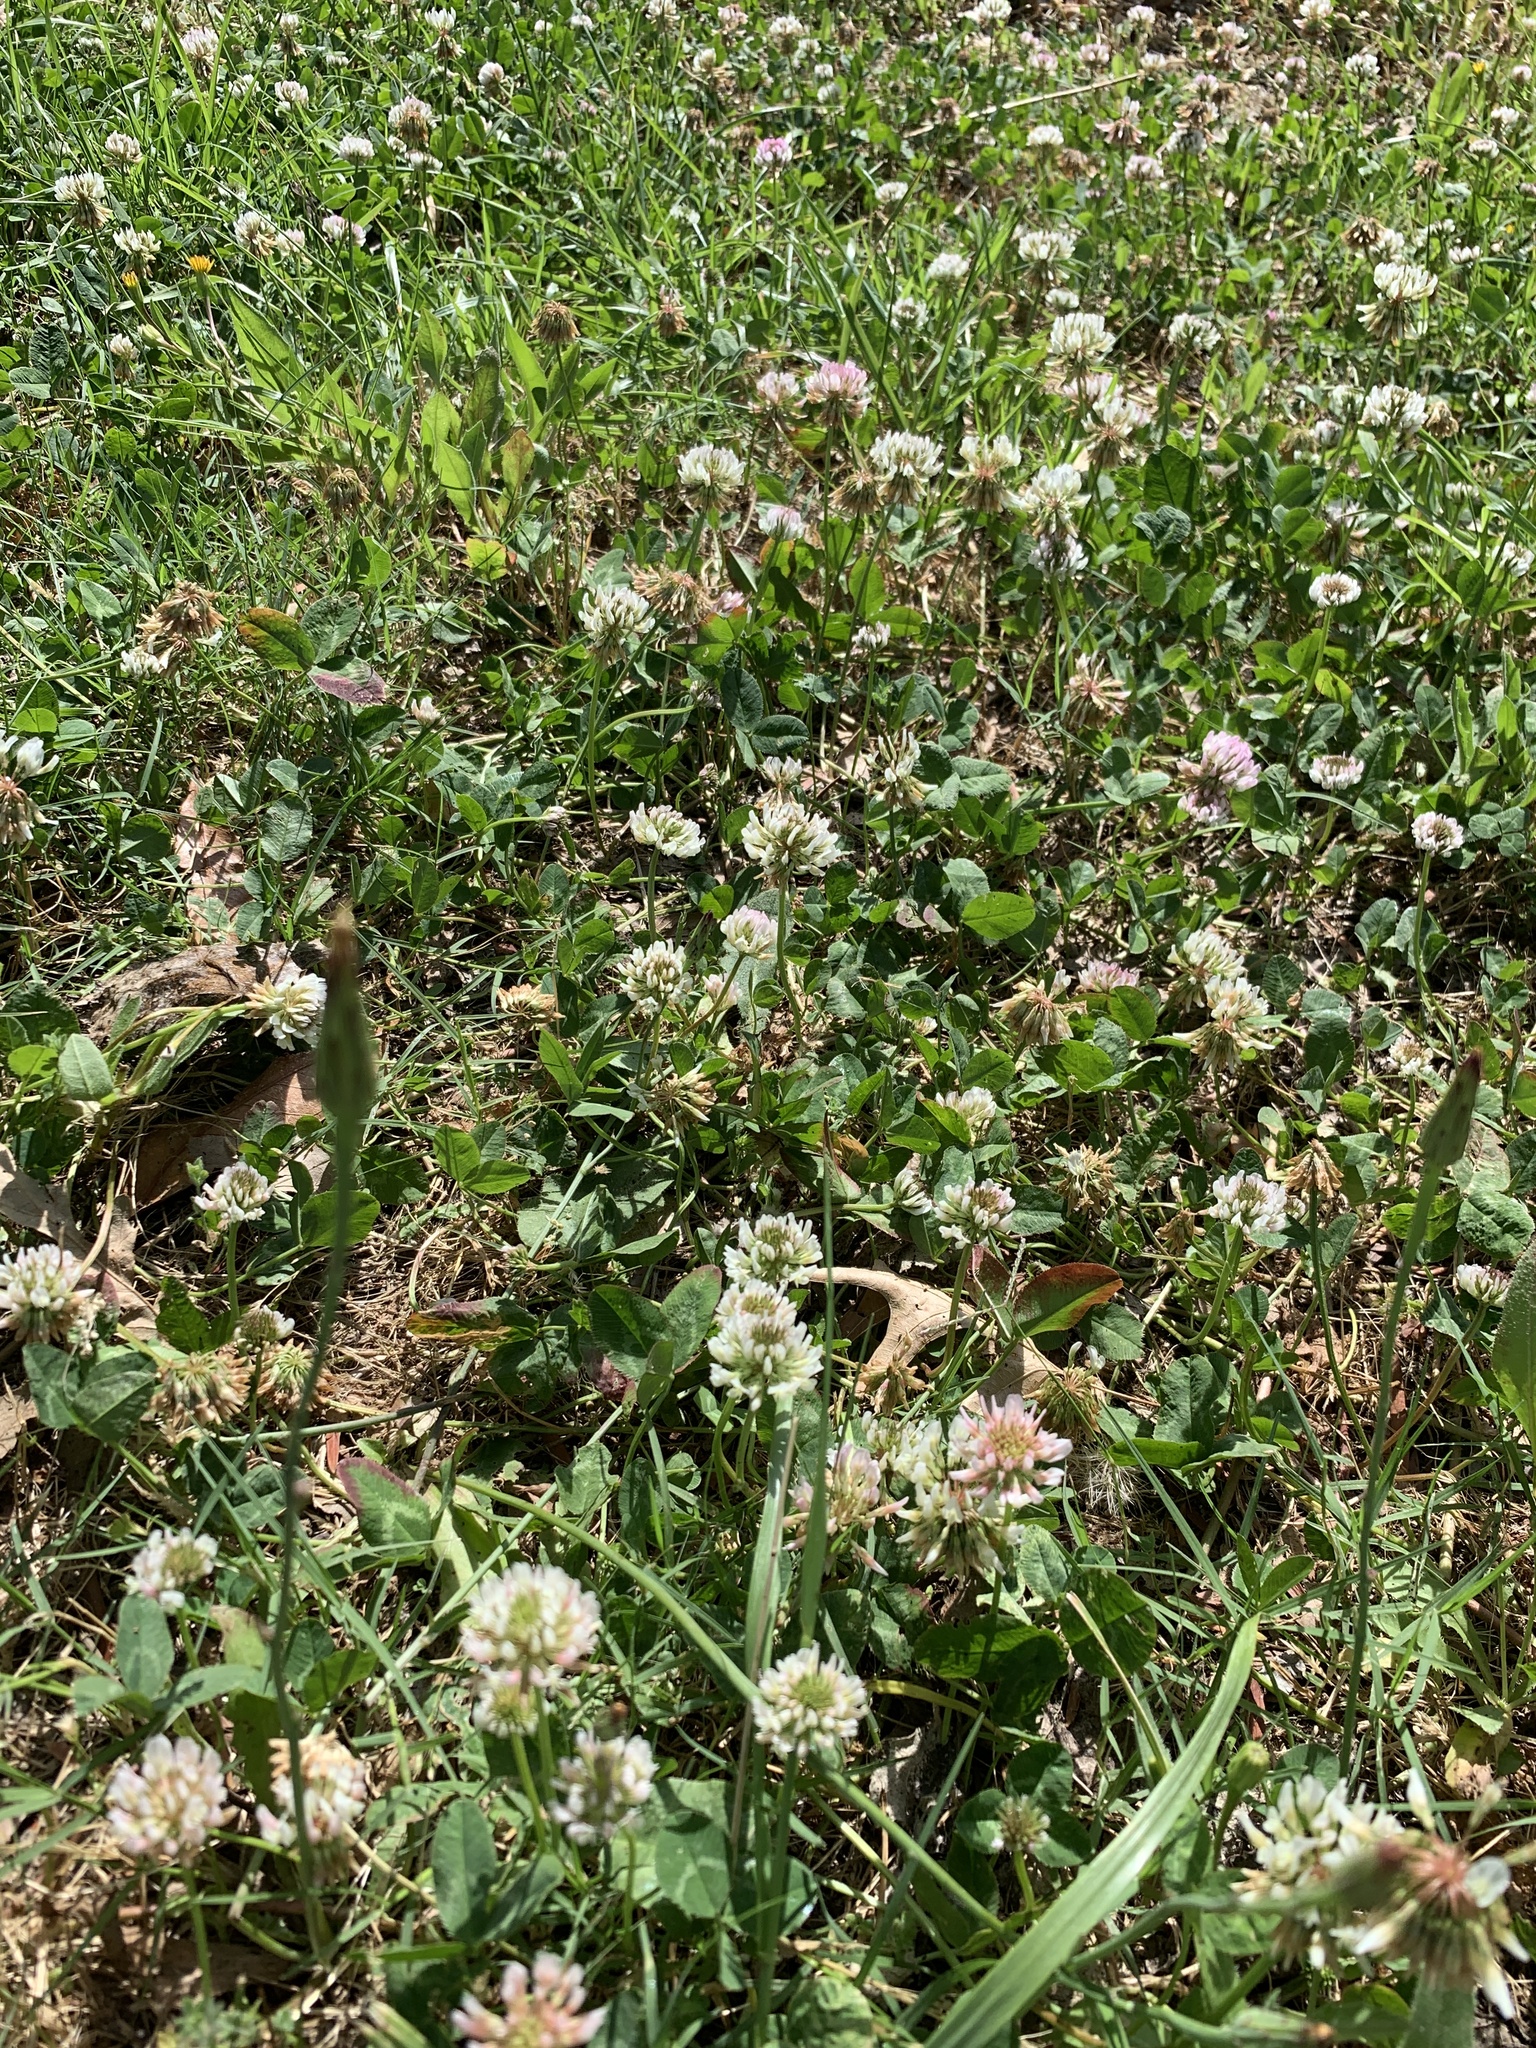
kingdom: Plantae
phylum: Tracheophyta
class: Magnoliopsida
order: Fabales
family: Fabaceae
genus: Trifolium
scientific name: Trifolium repens
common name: White clover
